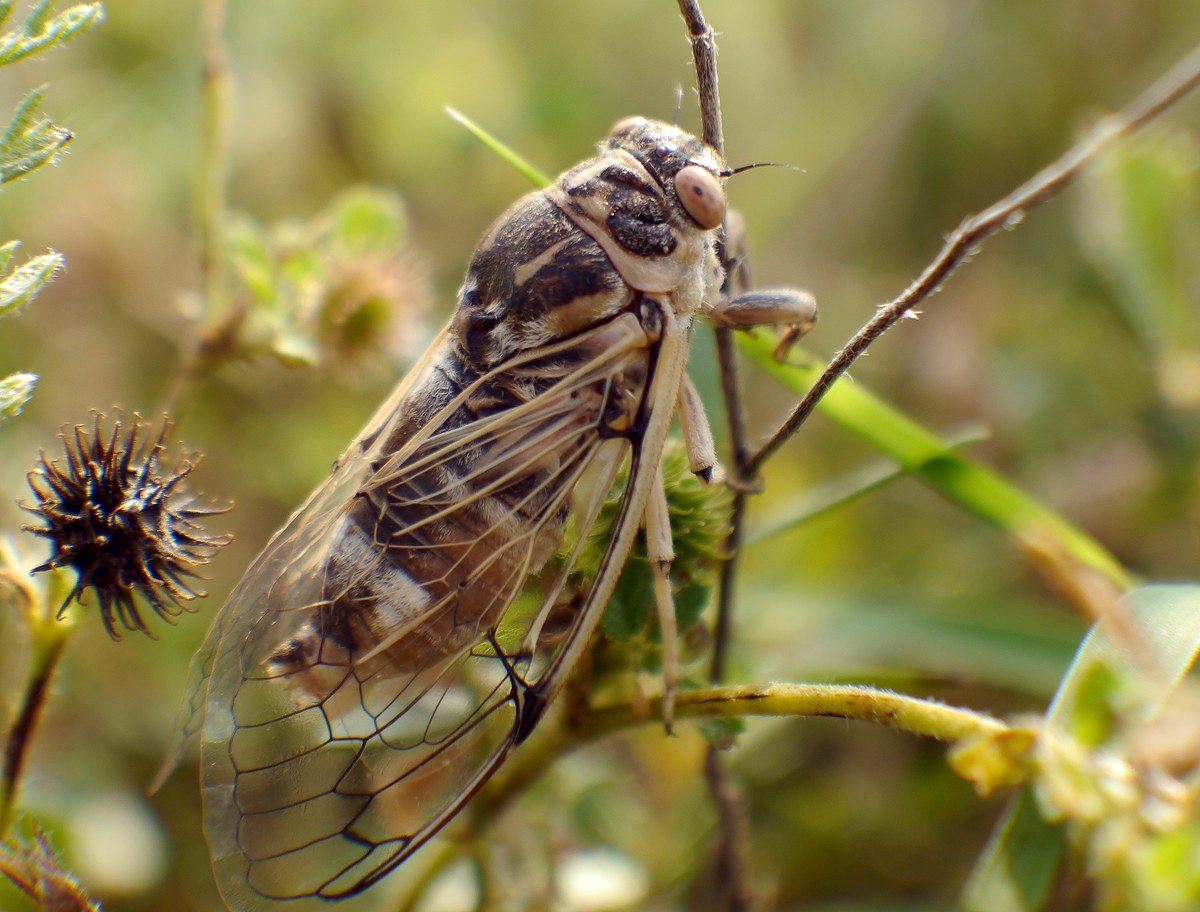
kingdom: Animalia
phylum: Arthropoda
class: Insecta
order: Hemiptera
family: Cicadidae
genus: Cicadatra
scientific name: Cicadatra platyptera
